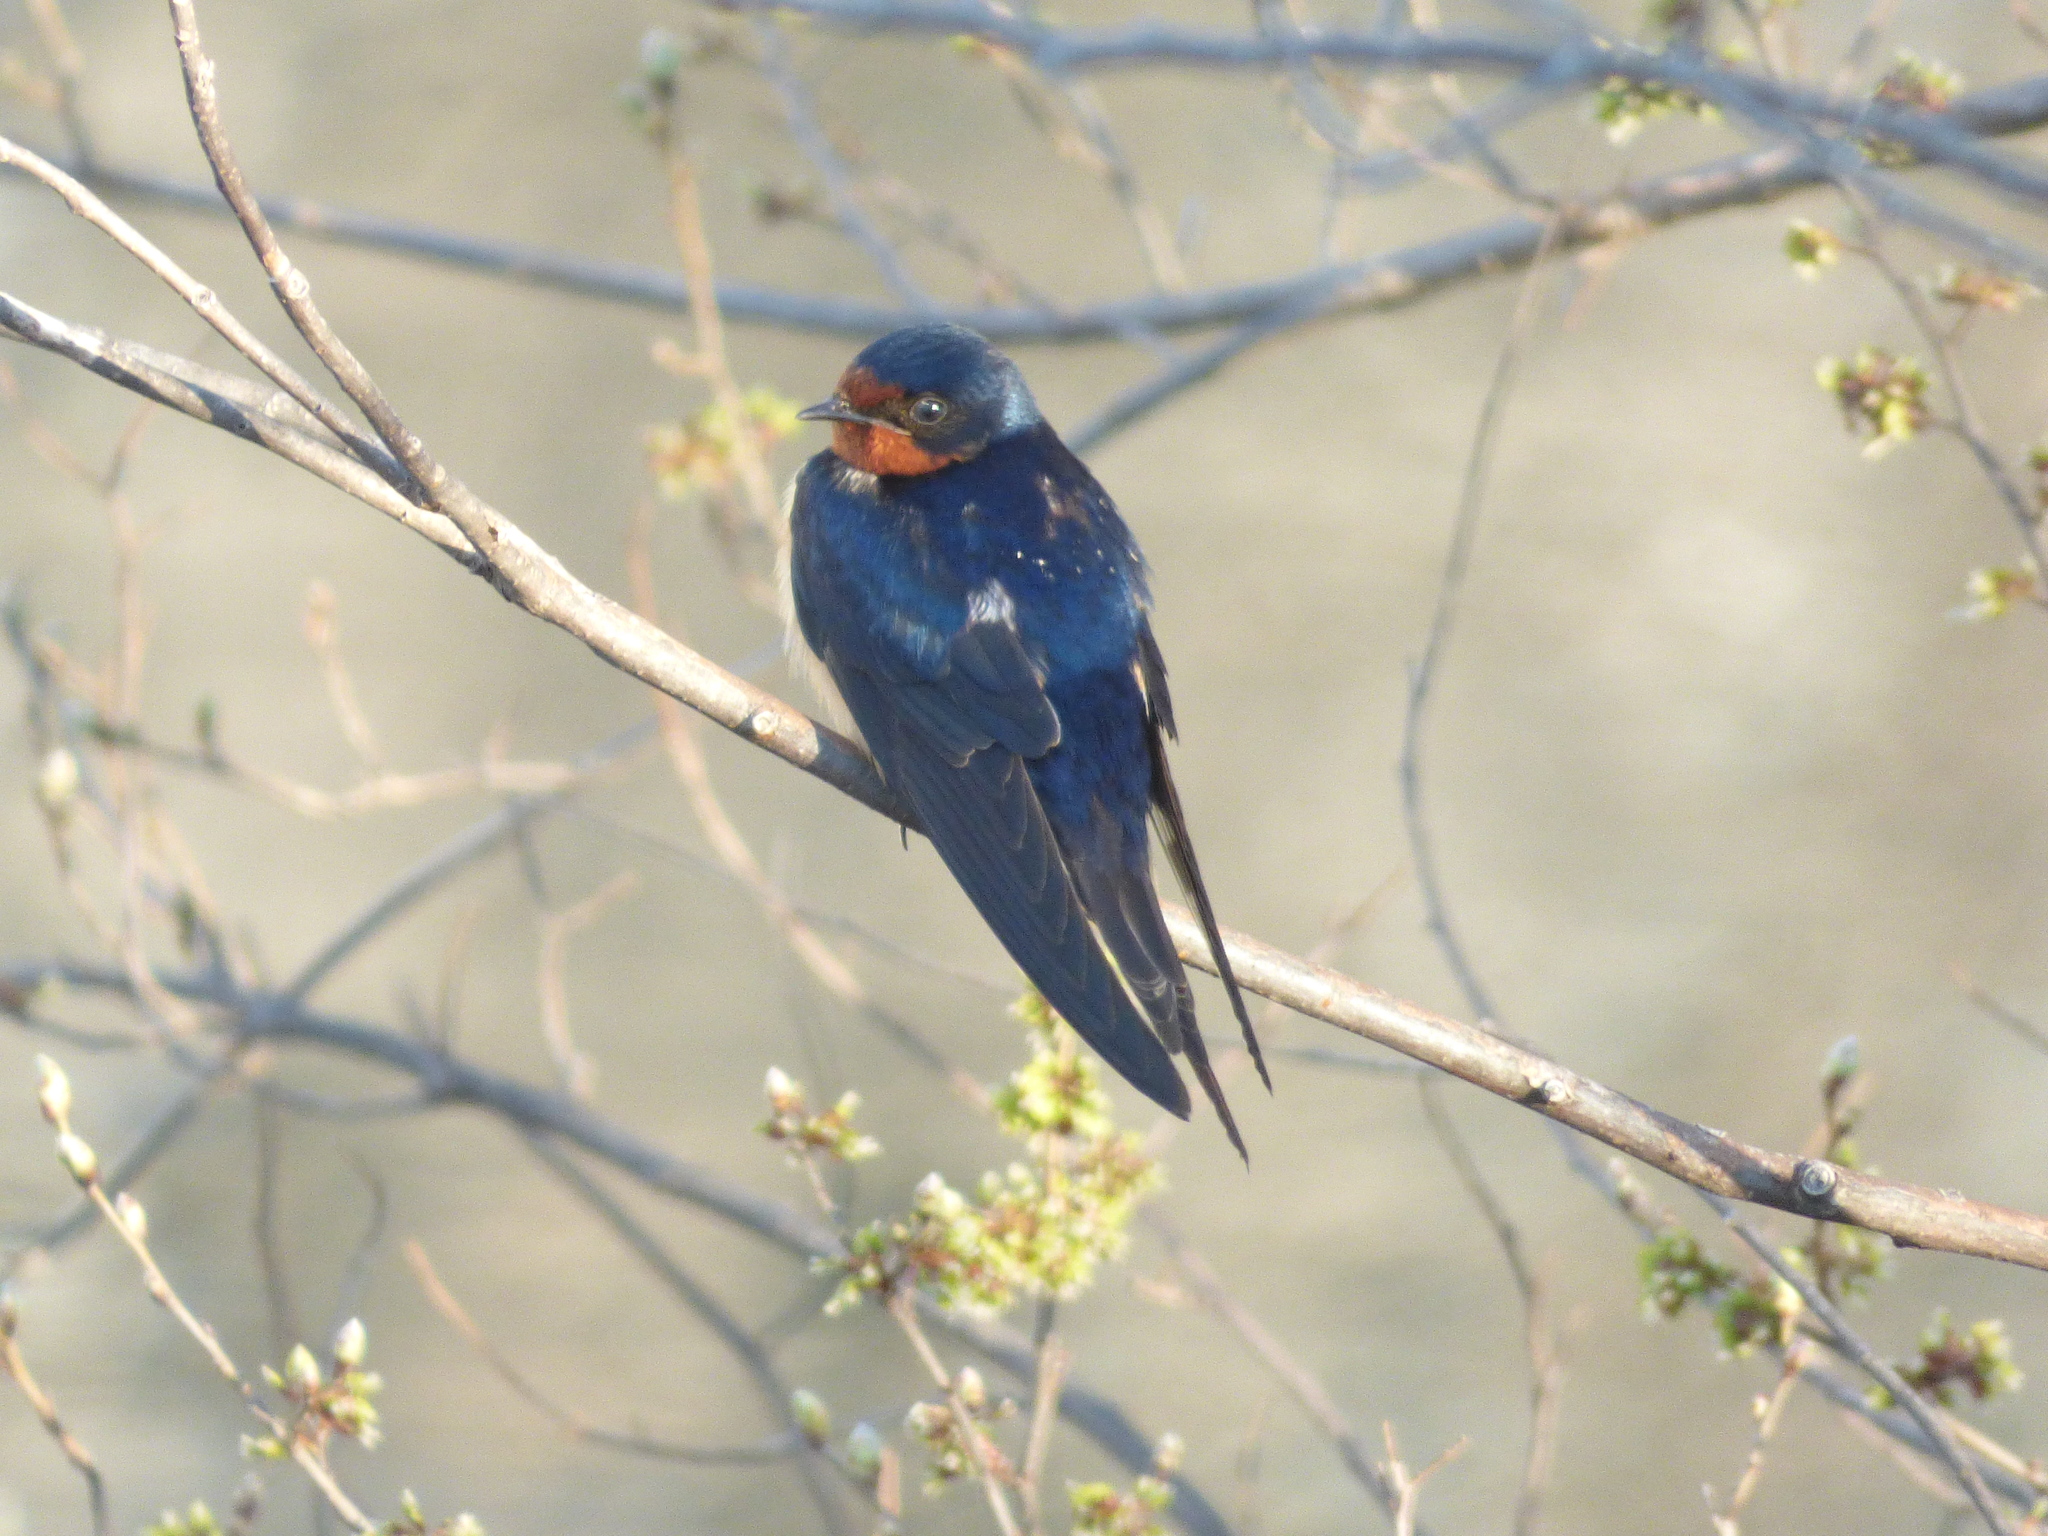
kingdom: Animalia
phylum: Chordata
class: Aves
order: Passeriformes
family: Hirundinidae
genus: Hirundo
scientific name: Hirundo rustica
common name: Barn swallow
